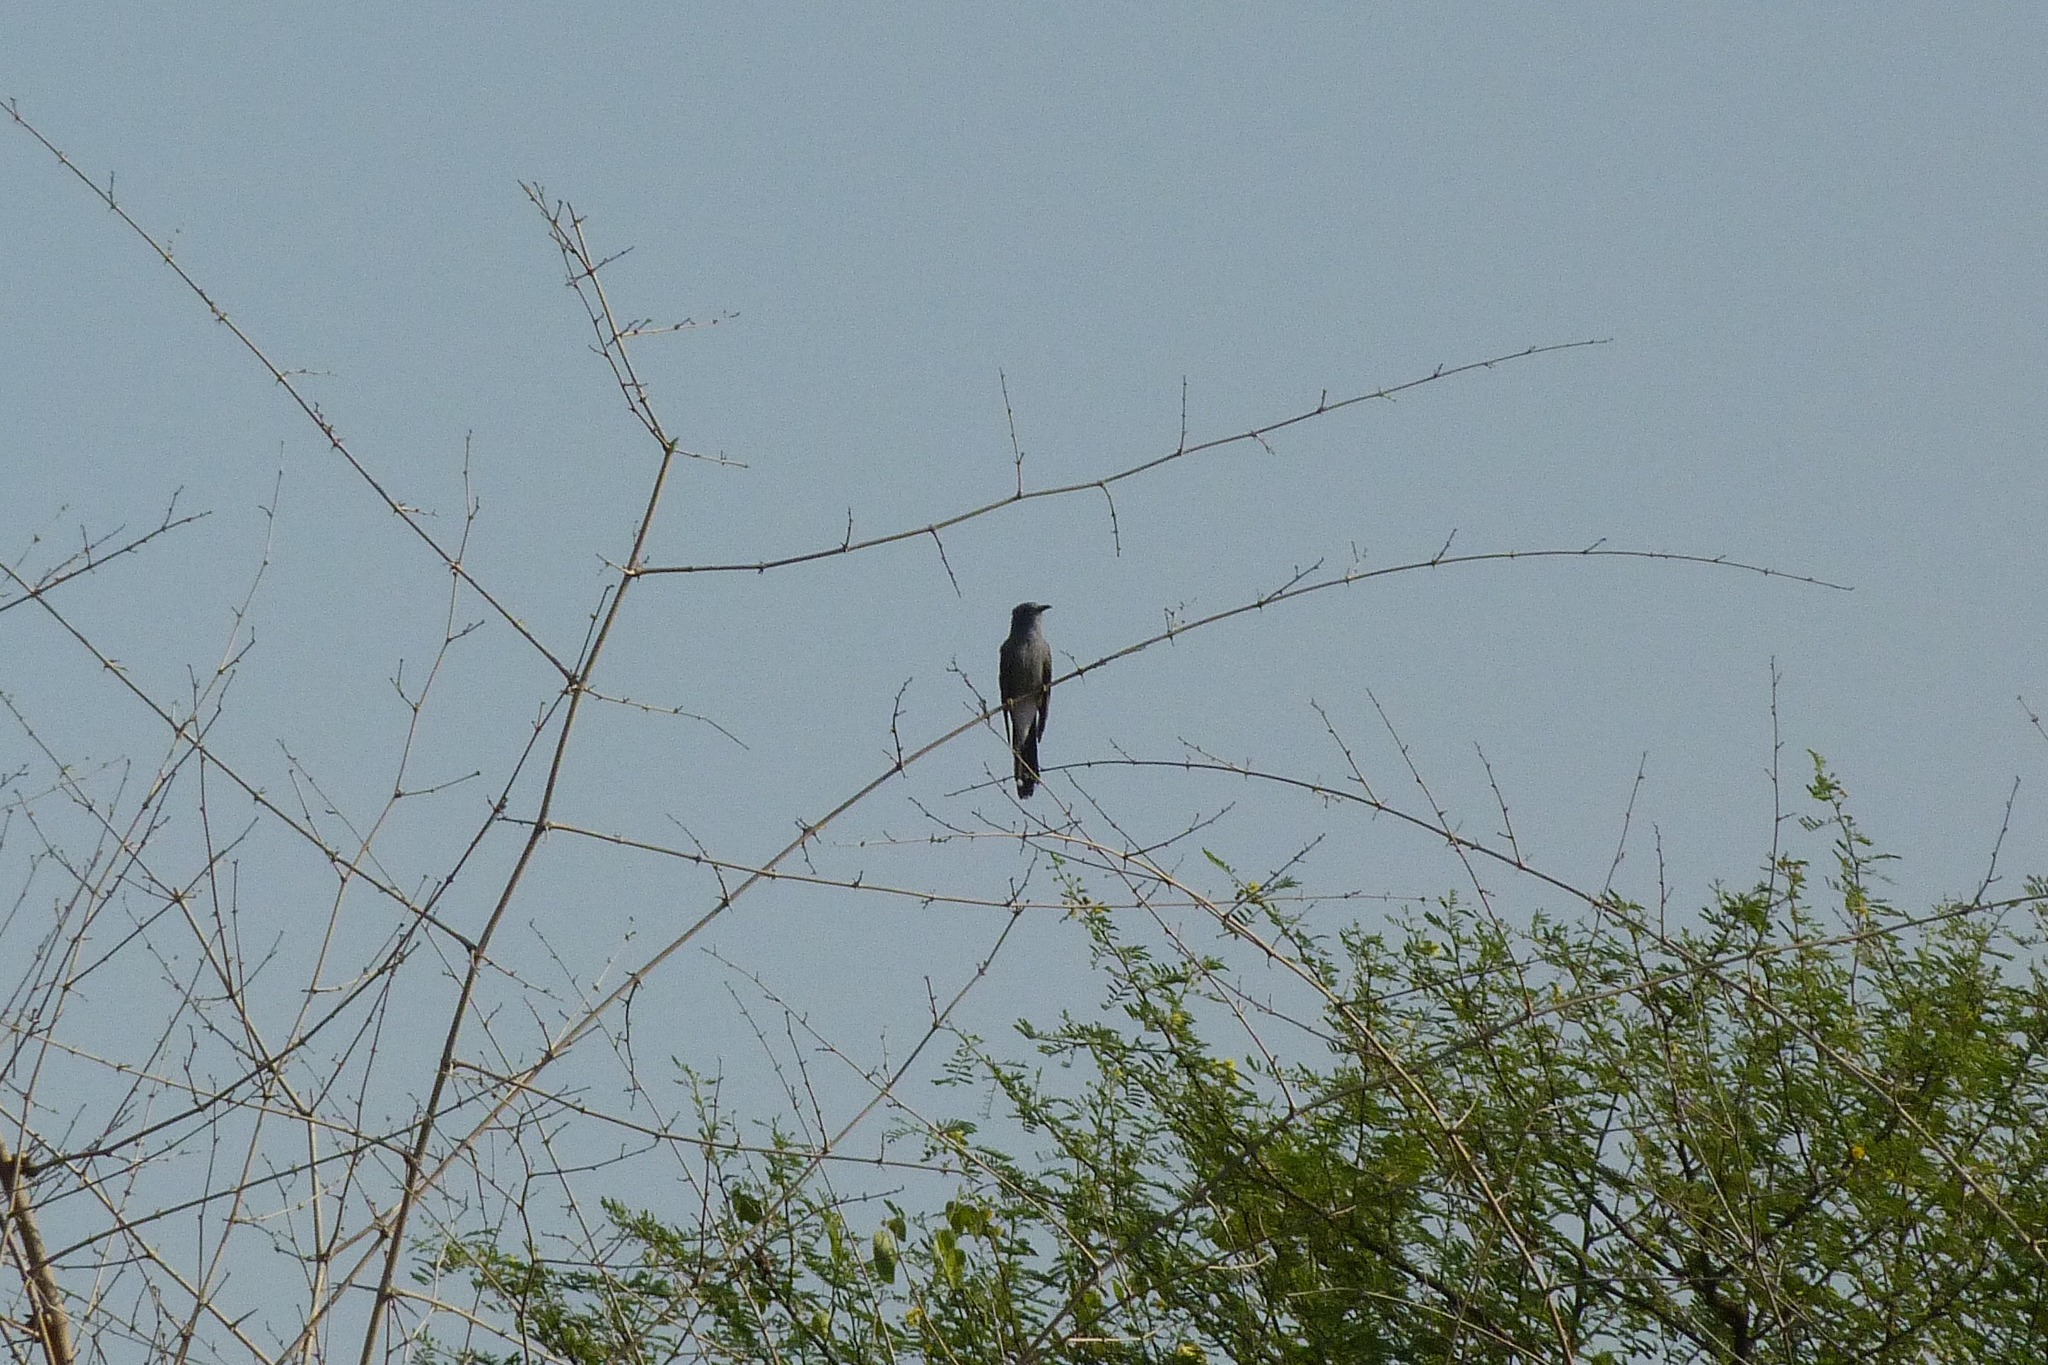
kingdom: Animalia
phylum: Chordata
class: Aves
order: Cuculiformes
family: Cuculidae
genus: Cacomantis
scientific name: Cacomantis passerinus
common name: Grey-bellied cuckoo
